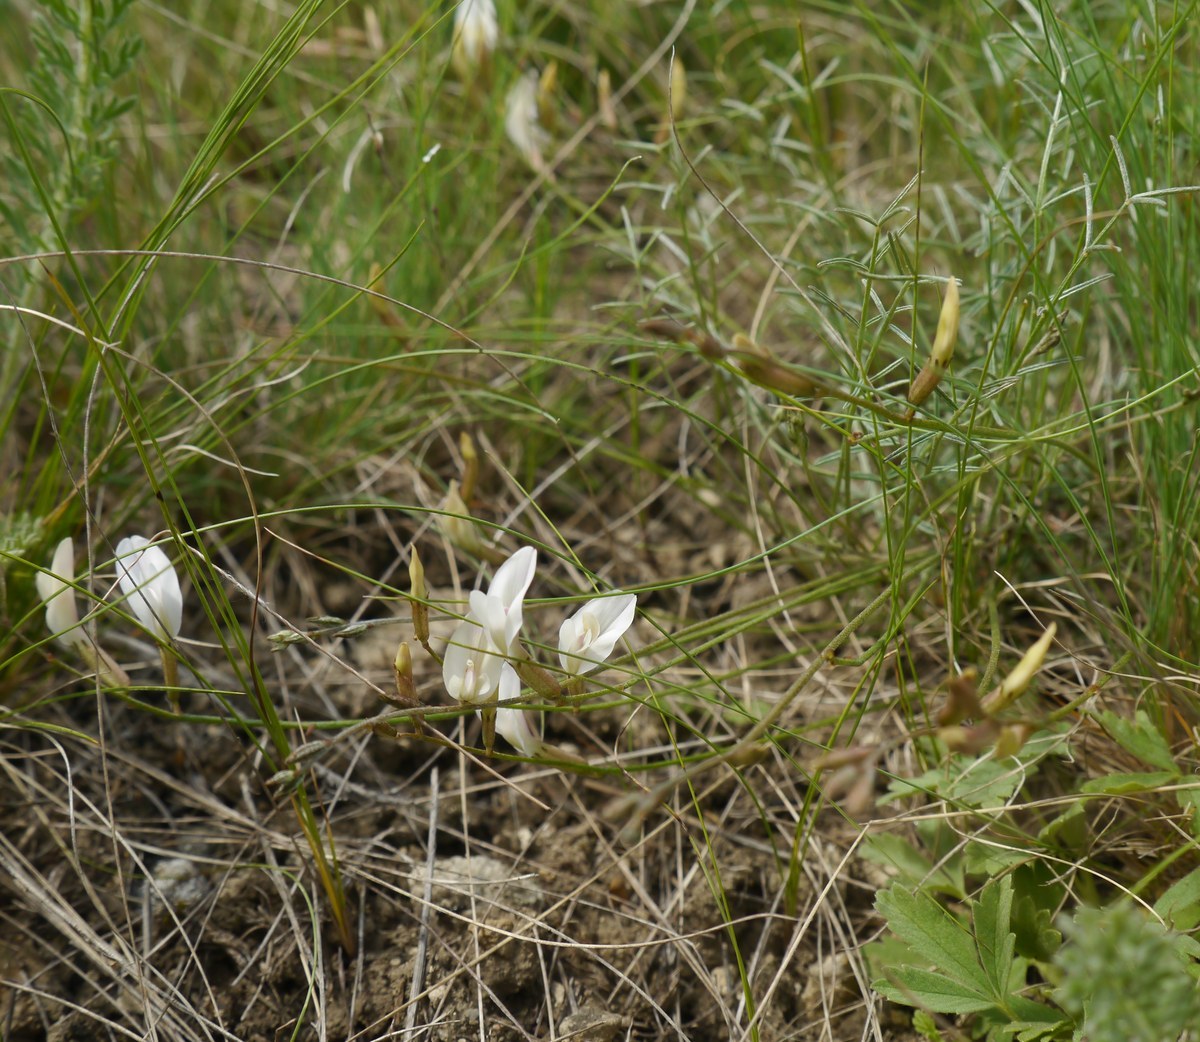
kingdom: Plantae
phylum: Tracheophyta
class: Magnoliopsida
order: Fabales
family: Fabaceae
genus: Astragalus
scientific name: Astragalus ucrainicus
